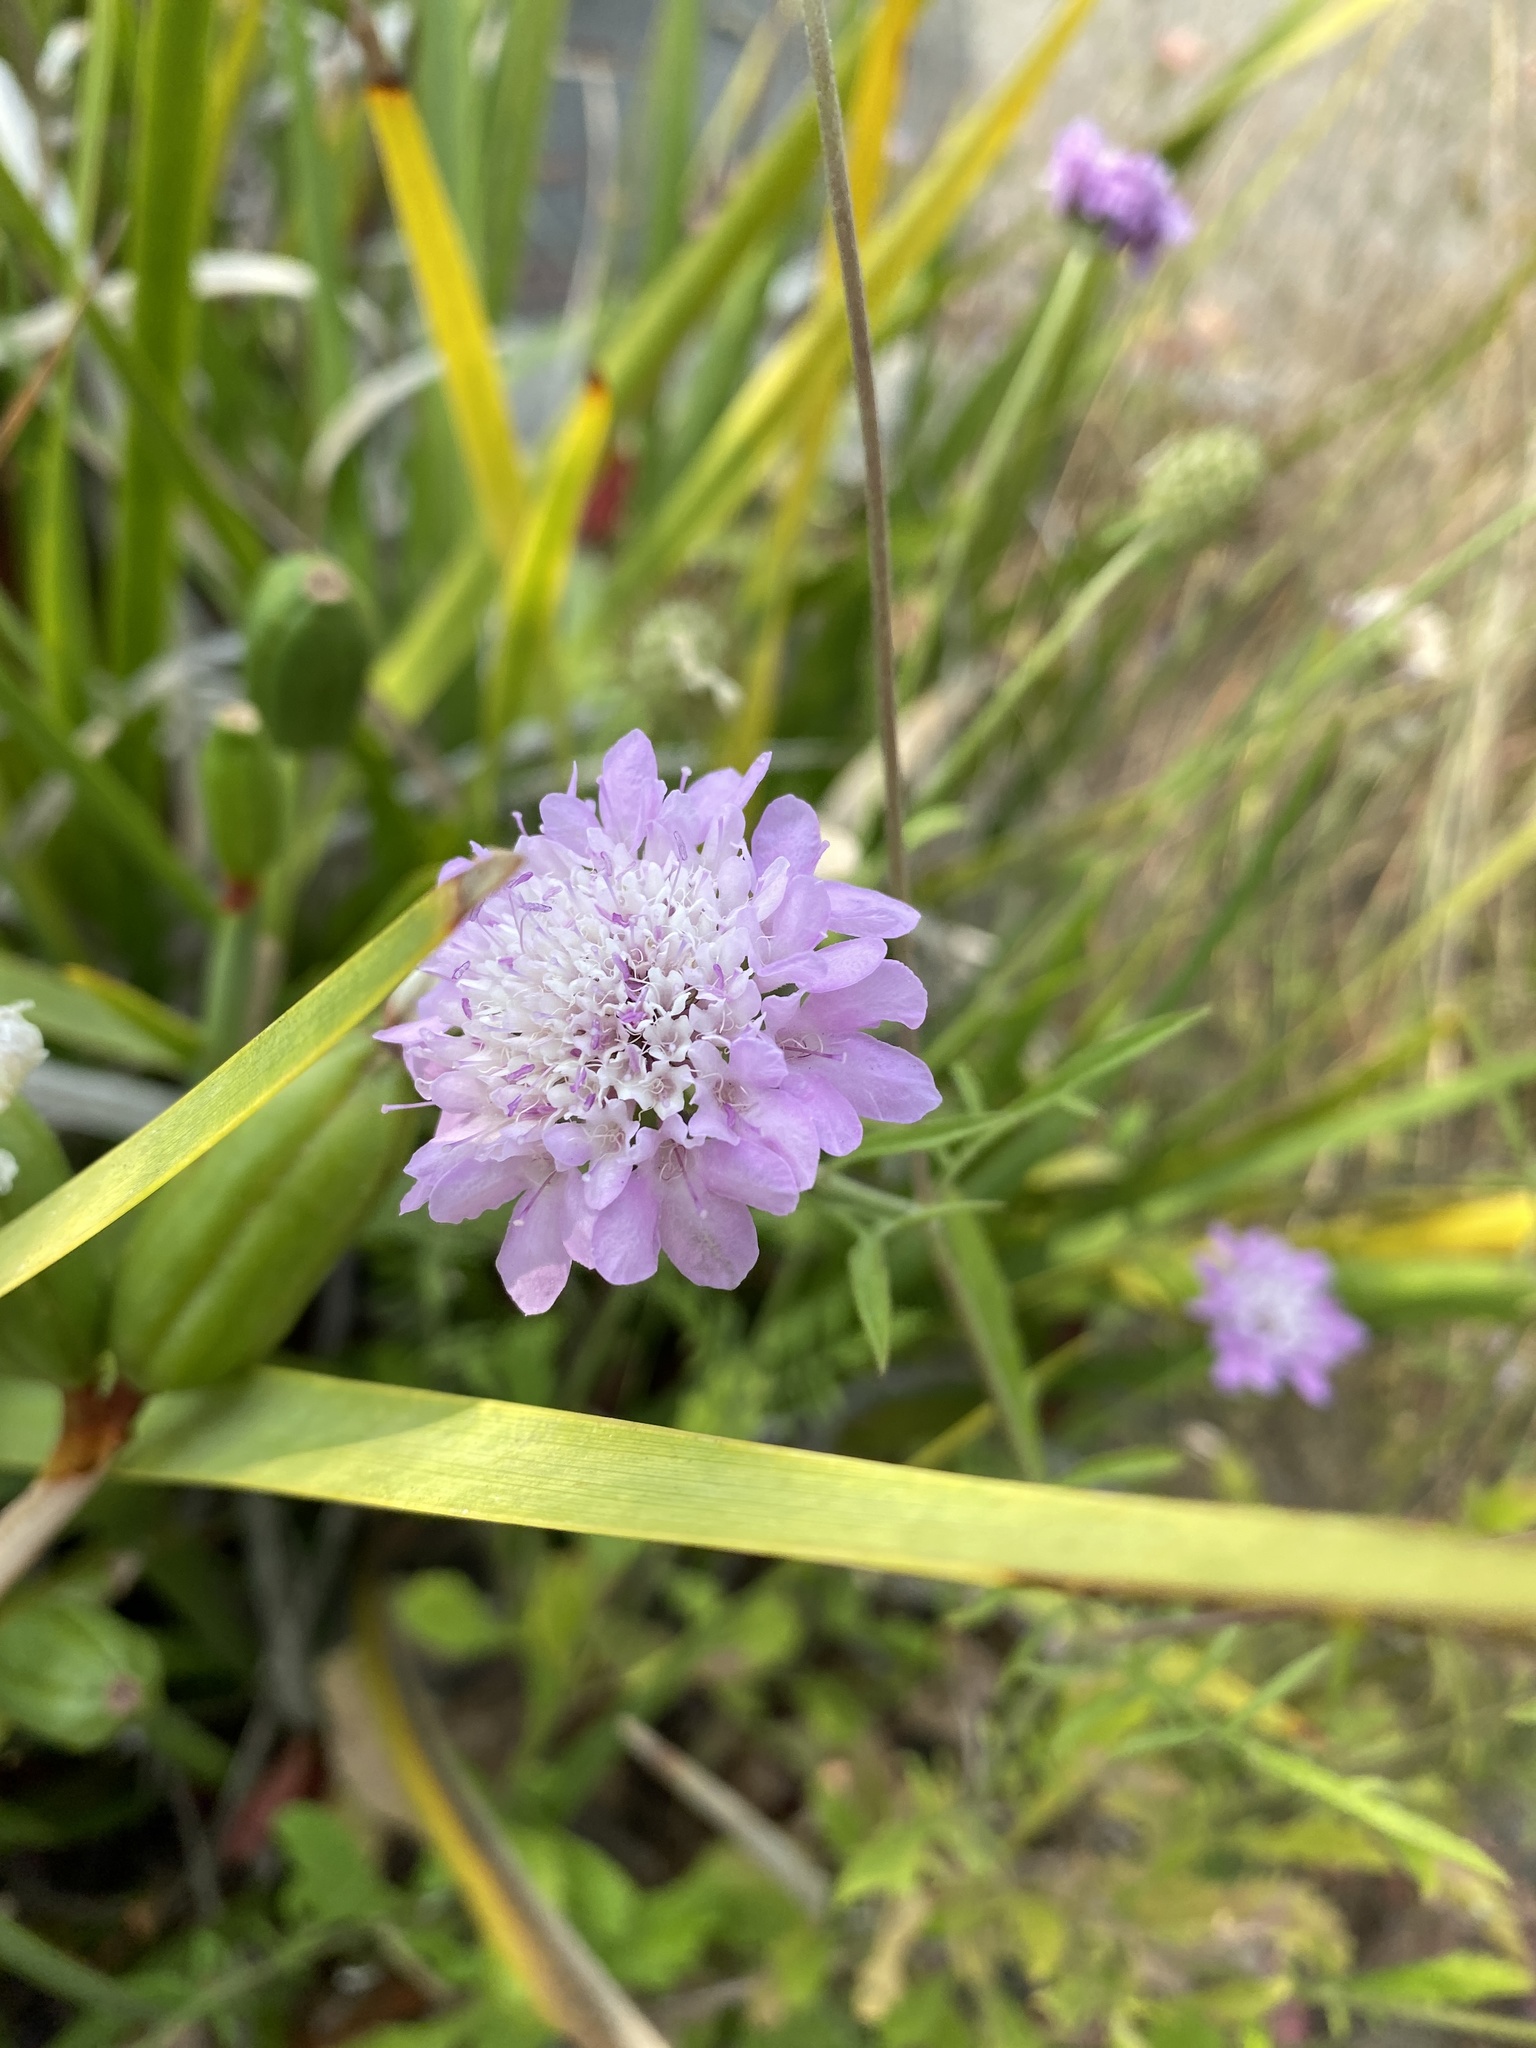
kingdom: Plantae
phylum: Tracheophyta
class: Magnoliopsida
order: Dipsacales
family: Caprifoliaceae
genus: Sixalix
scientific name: Sixalix atropurpurea
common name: Sweet scabious
